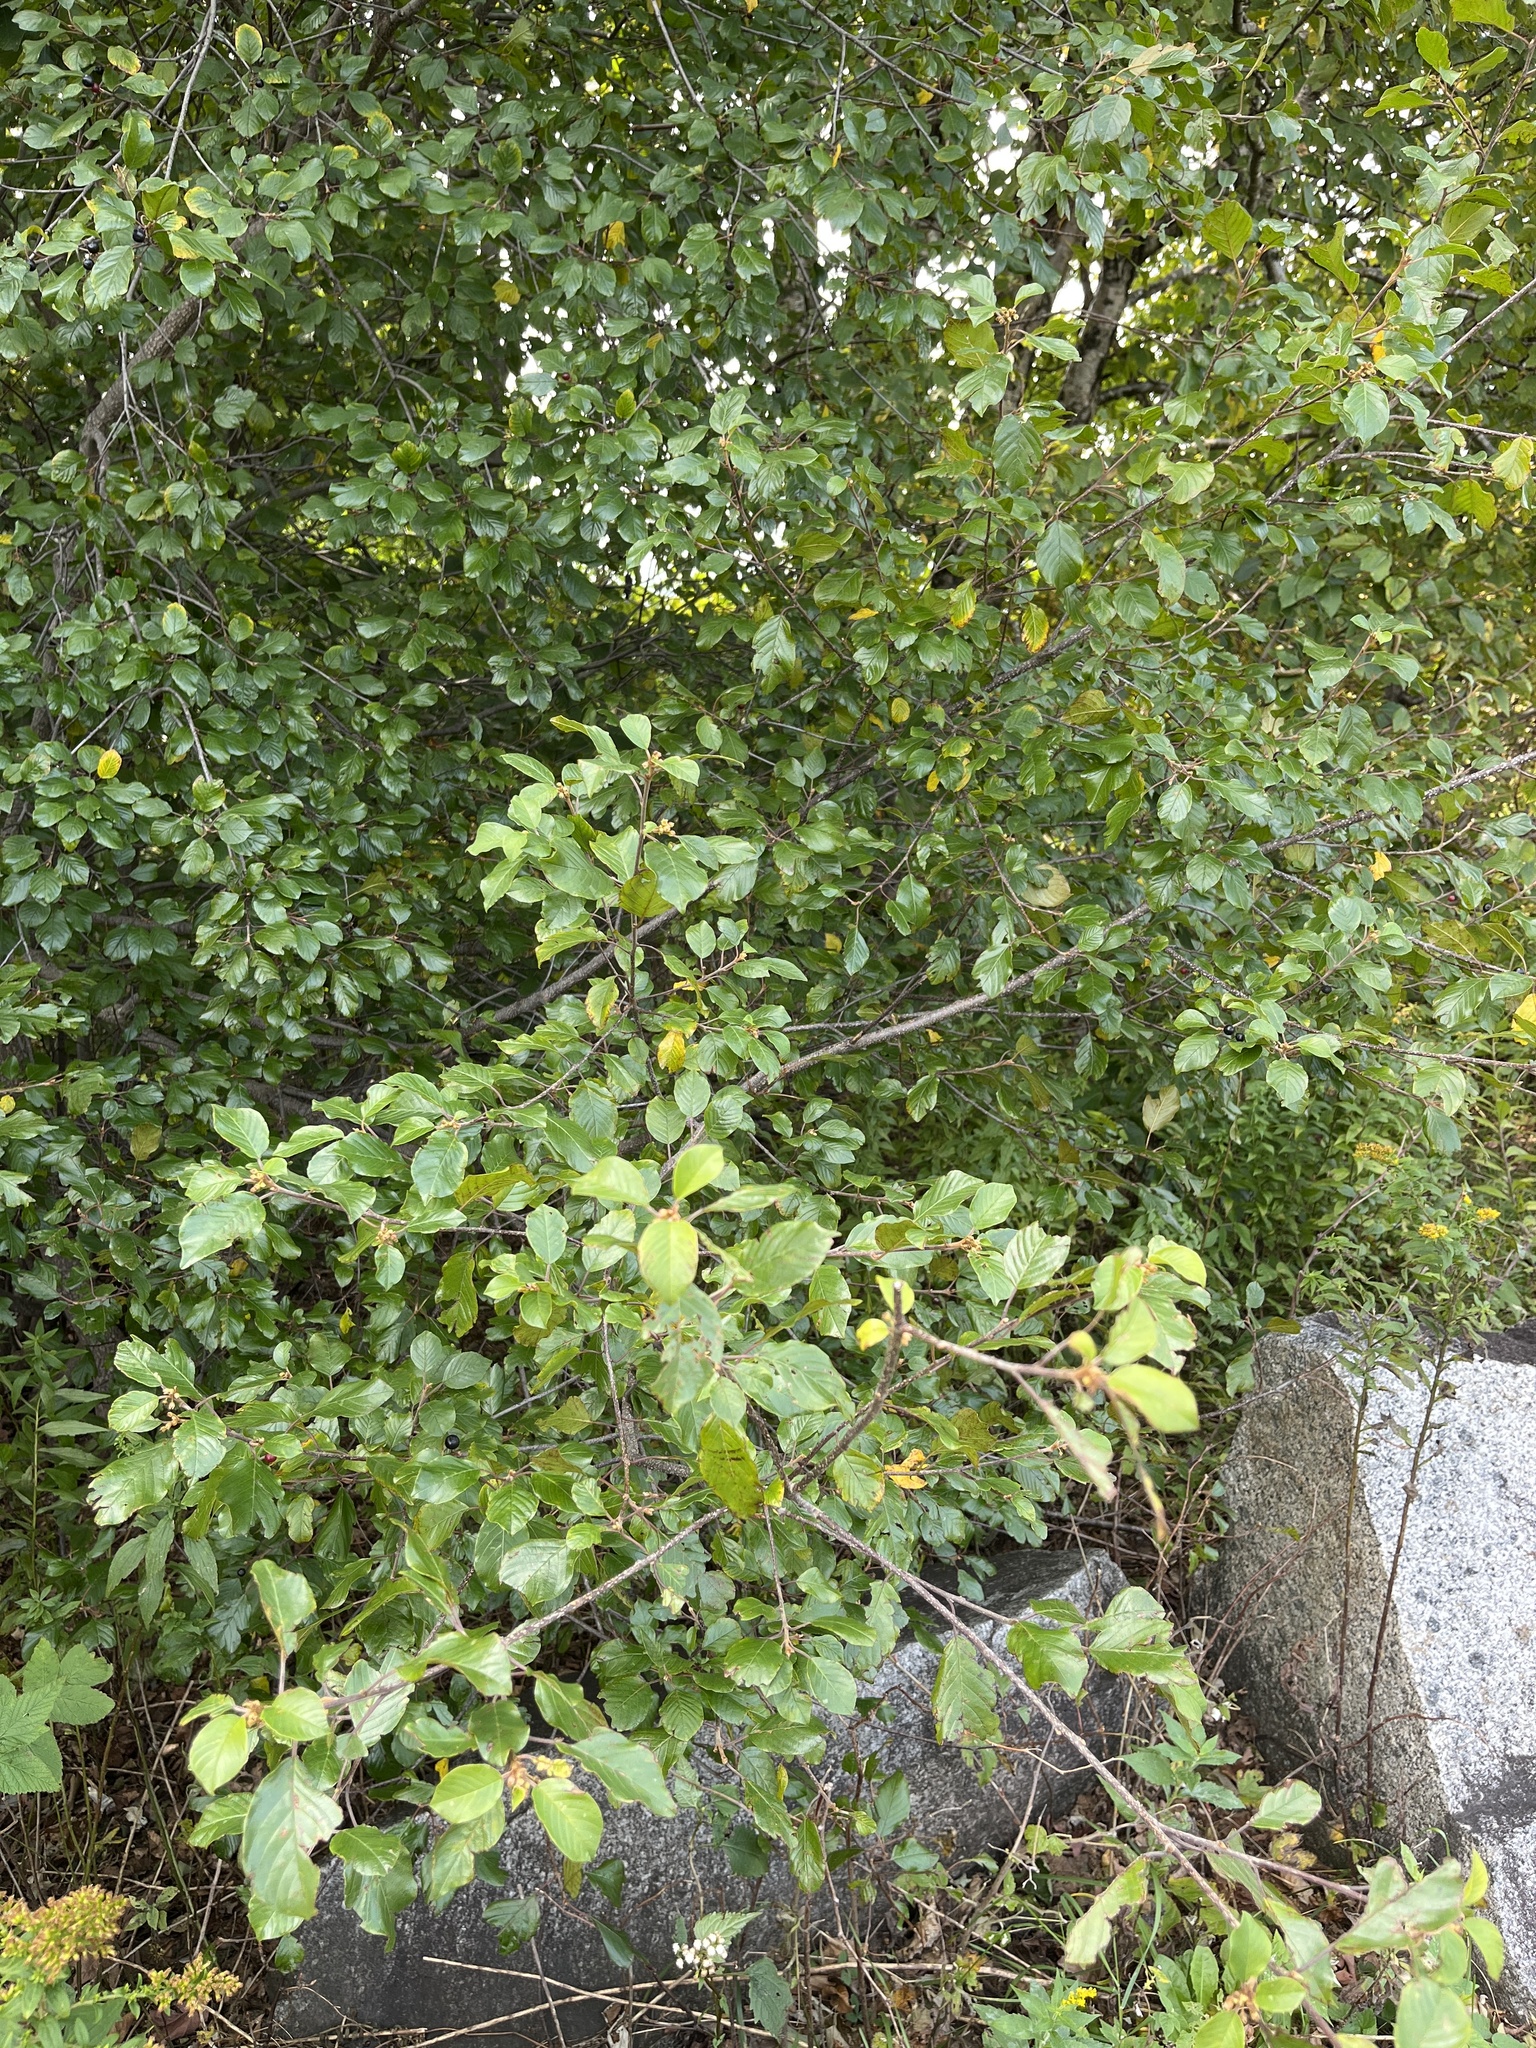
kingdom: Plantae
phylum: Tracheophyta
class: Magnoliopsida
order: Rosales
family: Rhamnaceae
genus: Frangula
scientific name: Frangula alnus
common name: Alder buckthorn
